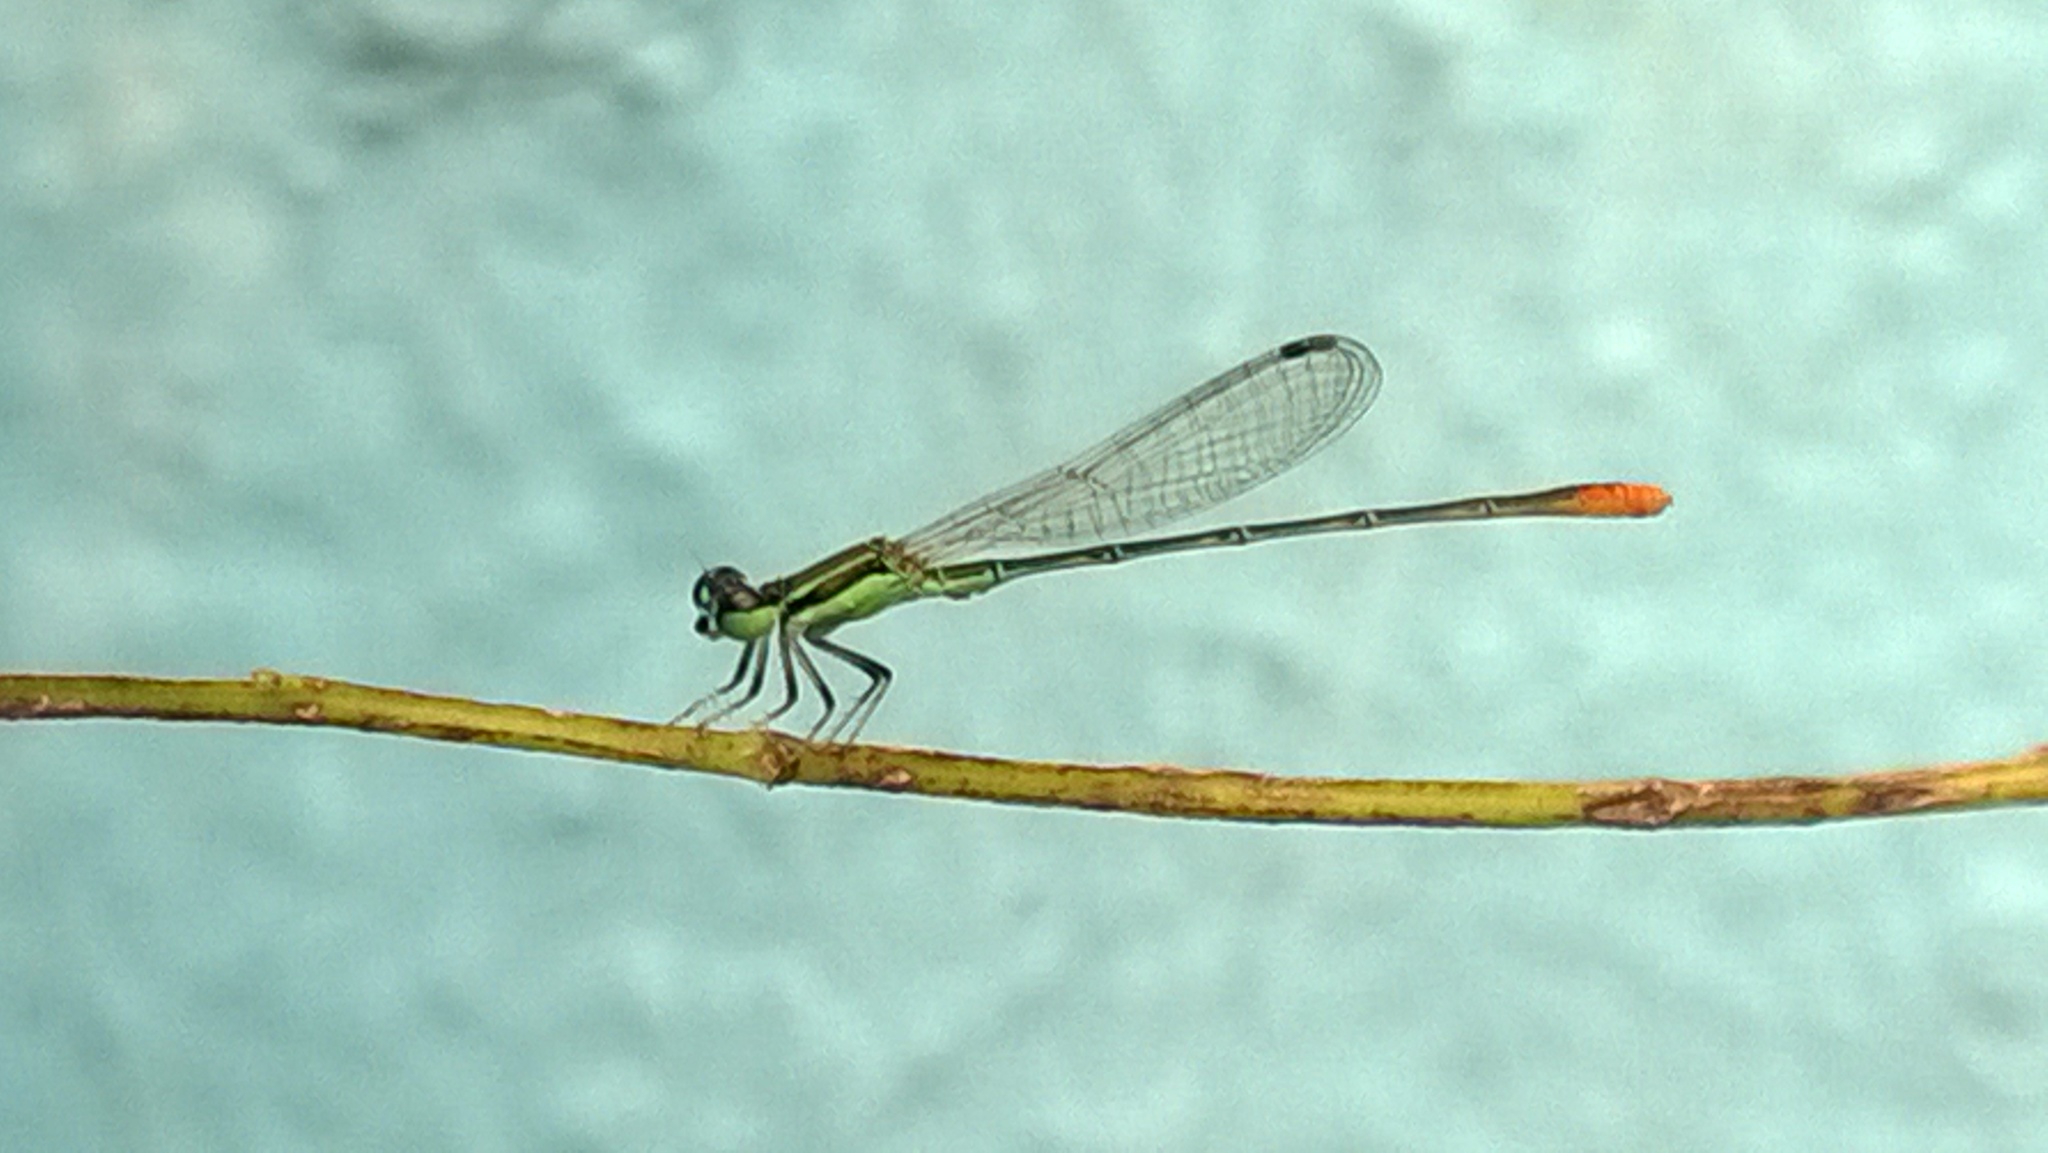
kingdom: Animalia
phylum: Arthropoda
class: Insecta
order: Odonata
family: Coenagrionidae
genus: Agriocnemis
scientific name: Agriocnemis pygmaea
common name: Pygmy wisp
